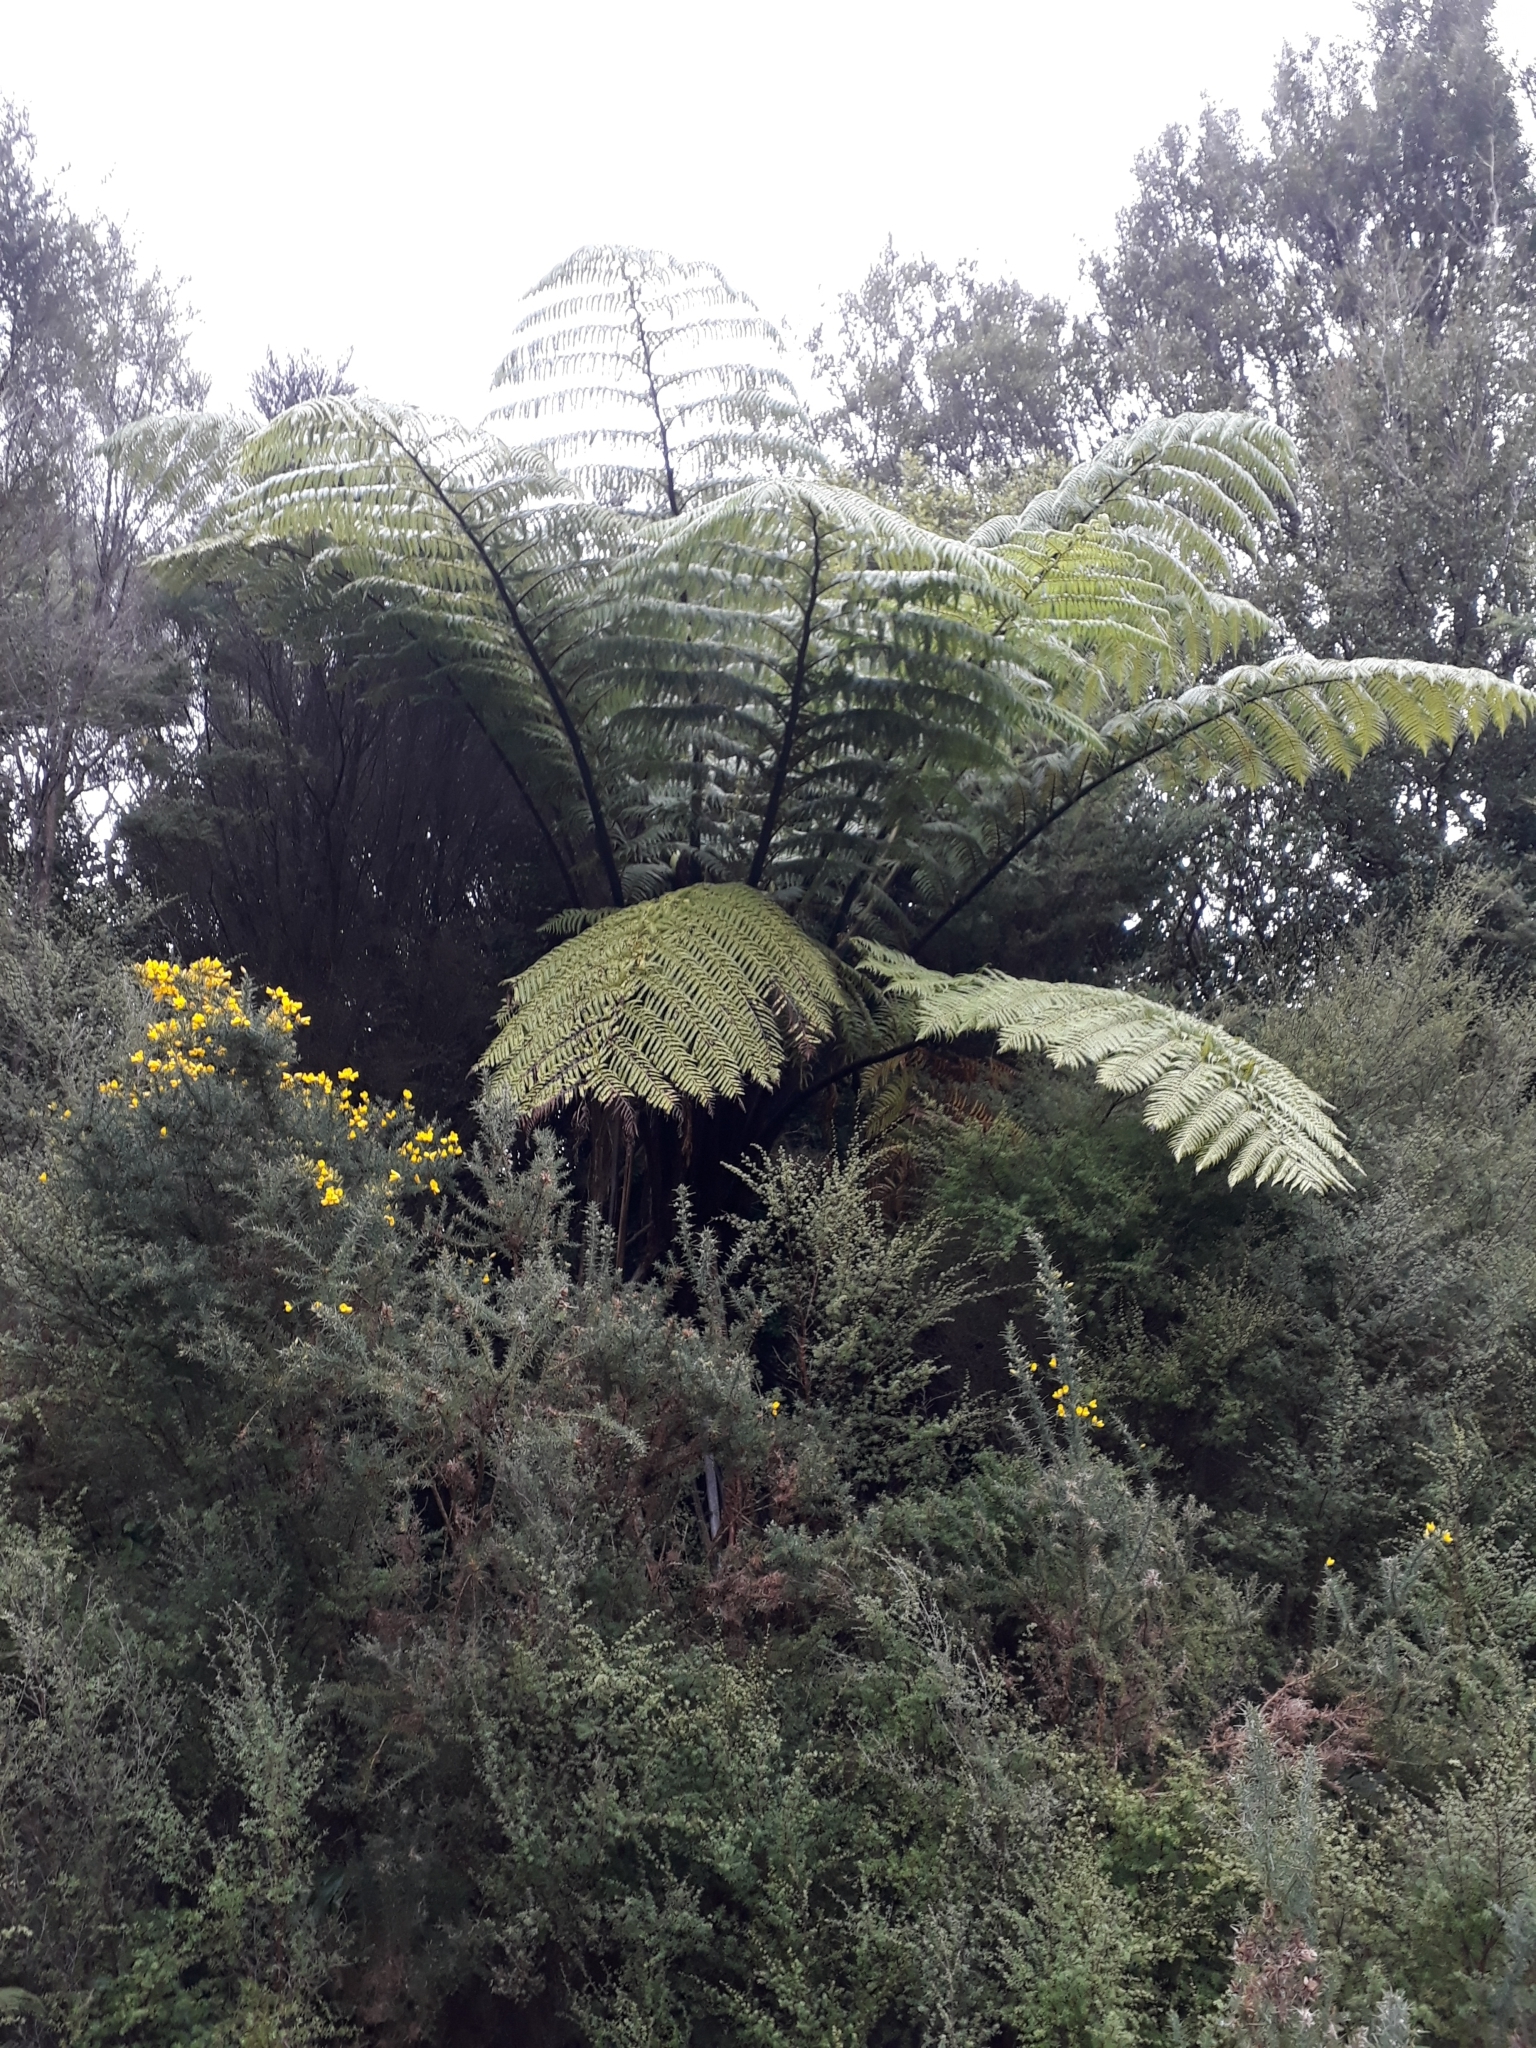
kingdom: Plantae
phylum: Tracheophyta
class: Polypodiopsida
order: Cyatheales
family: Cyatheaceae
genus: Sphaeropteris
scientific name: Sphaeropteris medullaris
